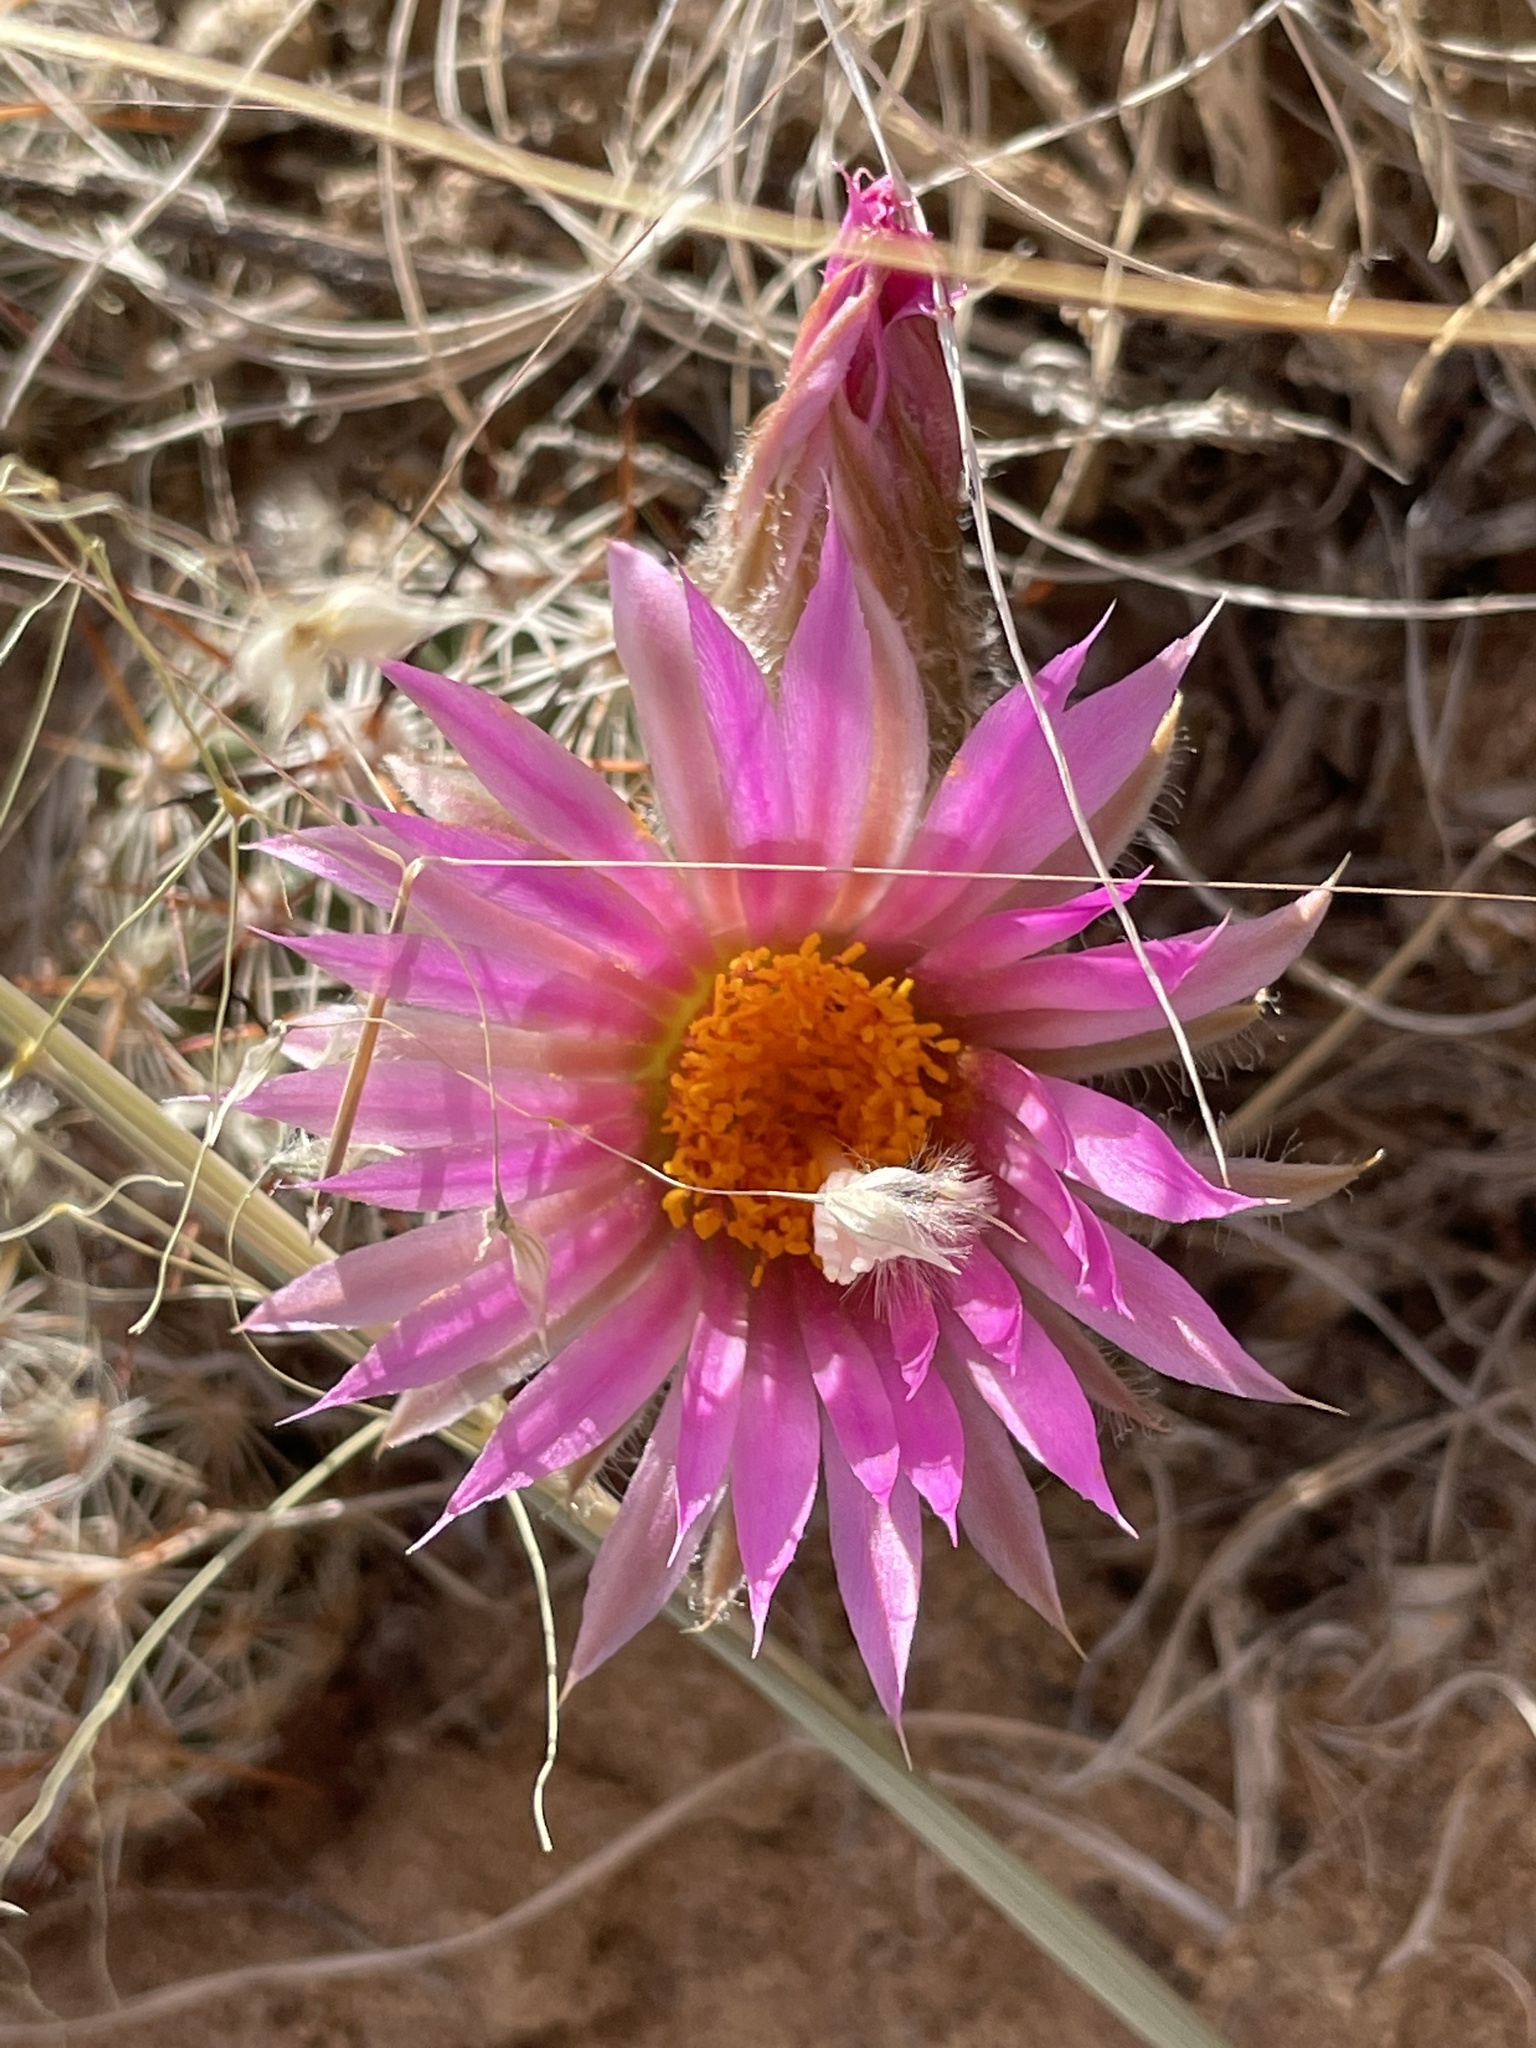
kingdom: Plantae
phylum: Tracheophyta
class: Magnoliopsida
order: Caryophyllales
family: Cactaceae
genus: Pelecyphora
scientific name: Pelecyphora vivipara
